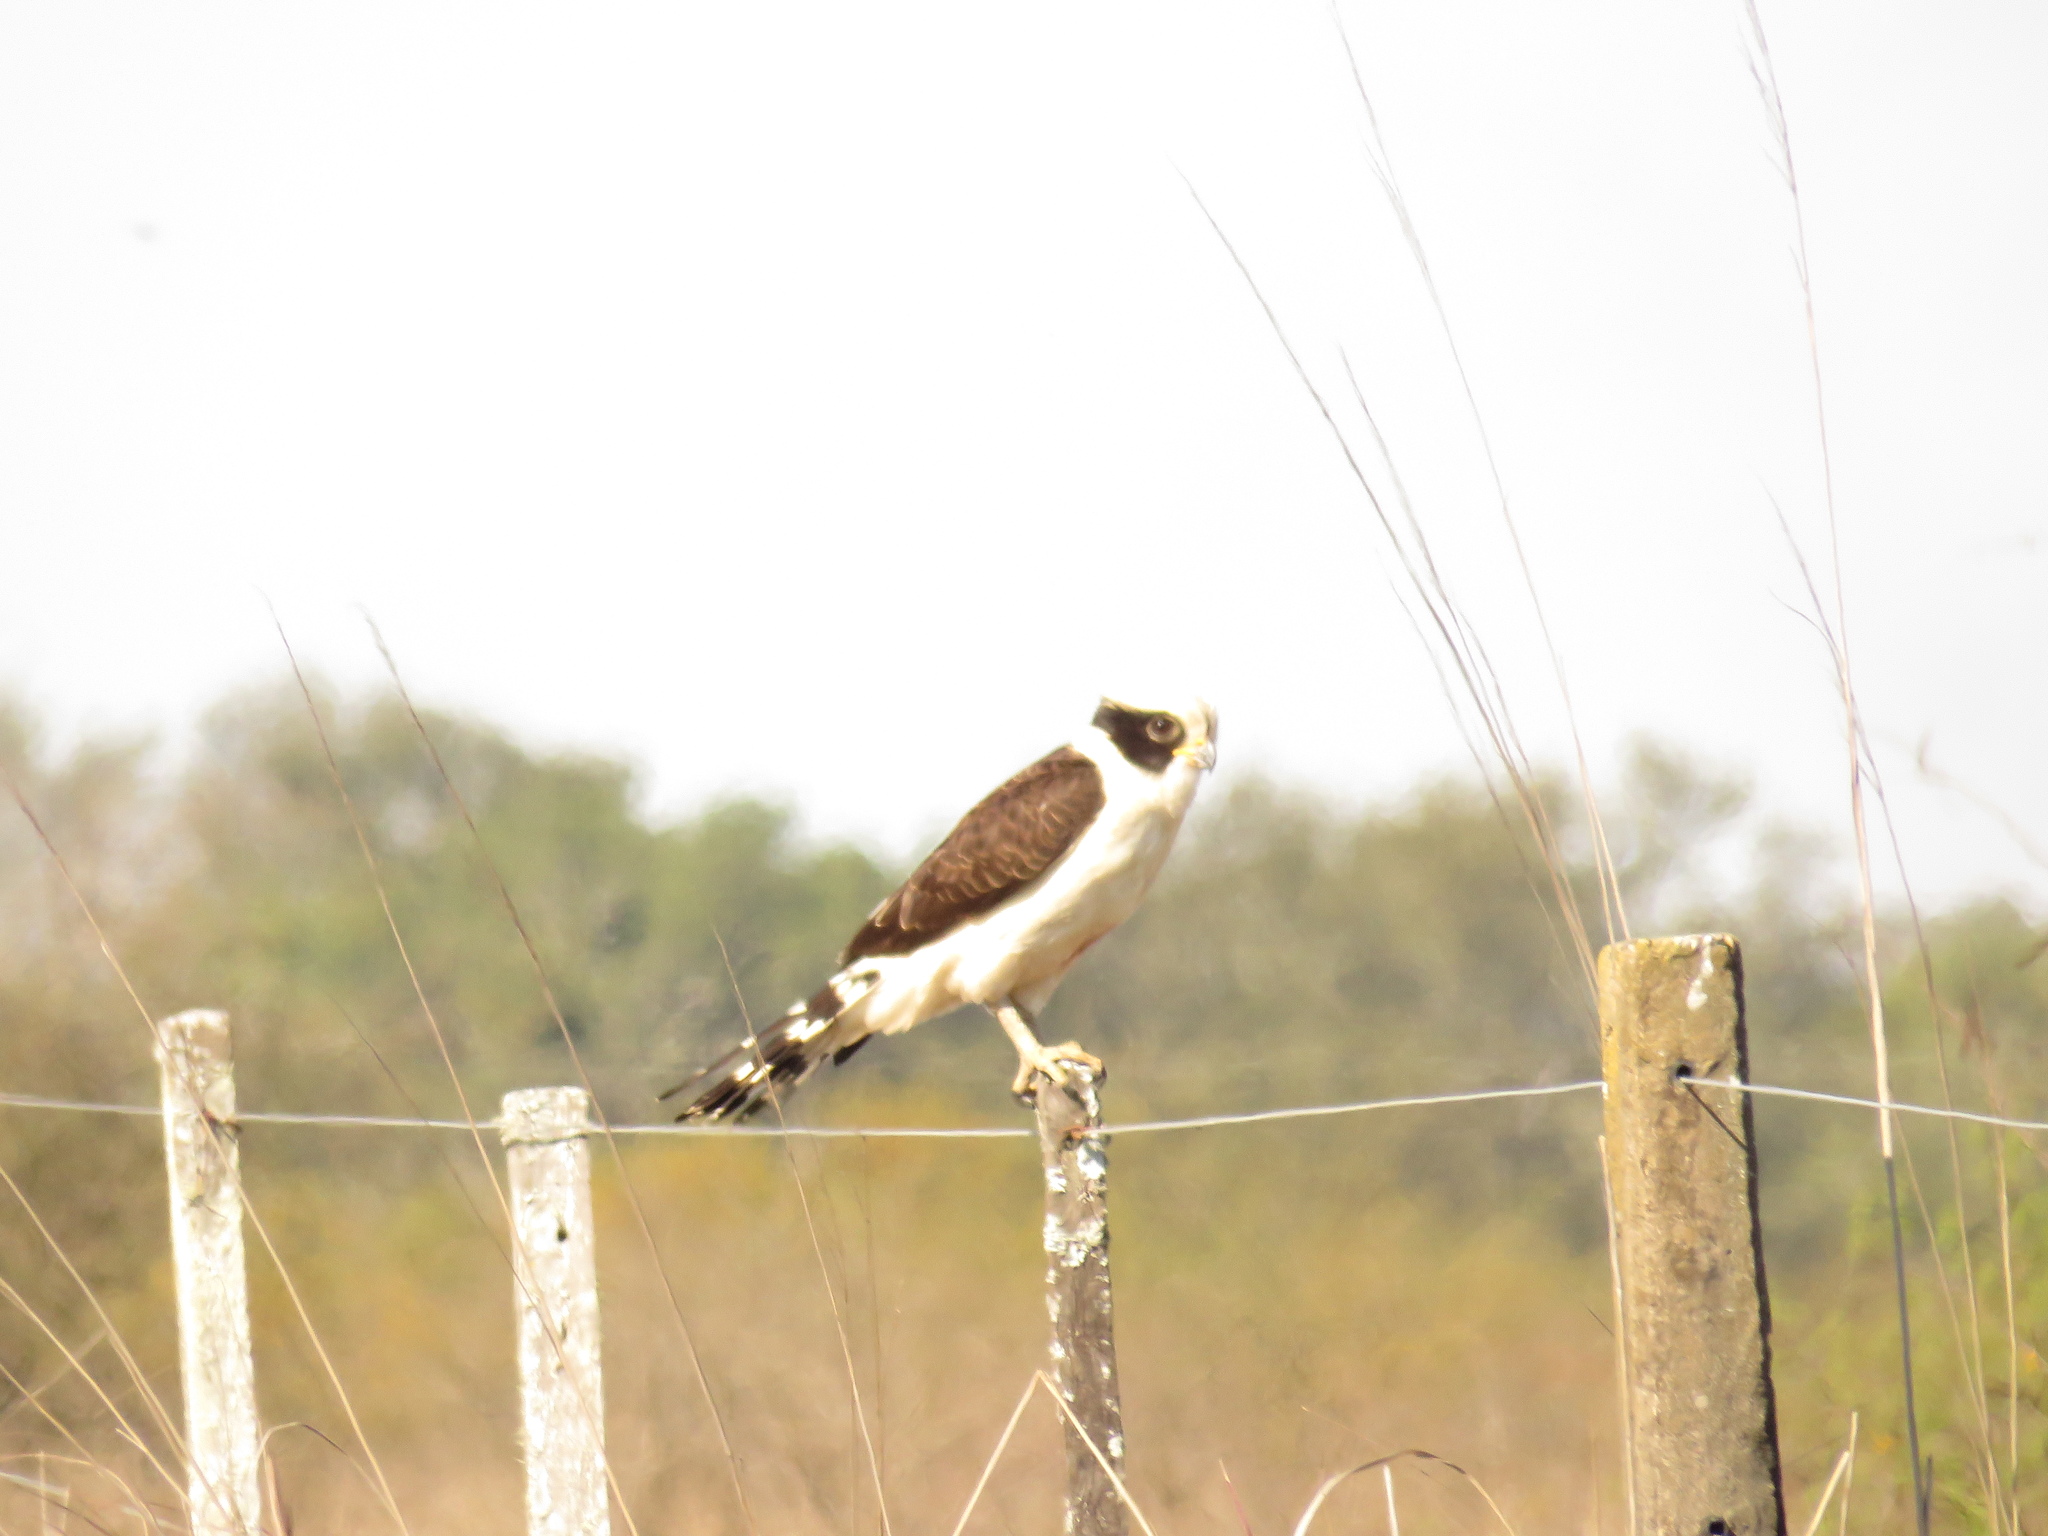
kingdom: Animalia
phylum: Chordata
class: Aves
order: Falconiformes
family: Falconidae
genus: Herpetotheres
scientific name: Herpetotheres cachinnans
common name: Laughing falcon
